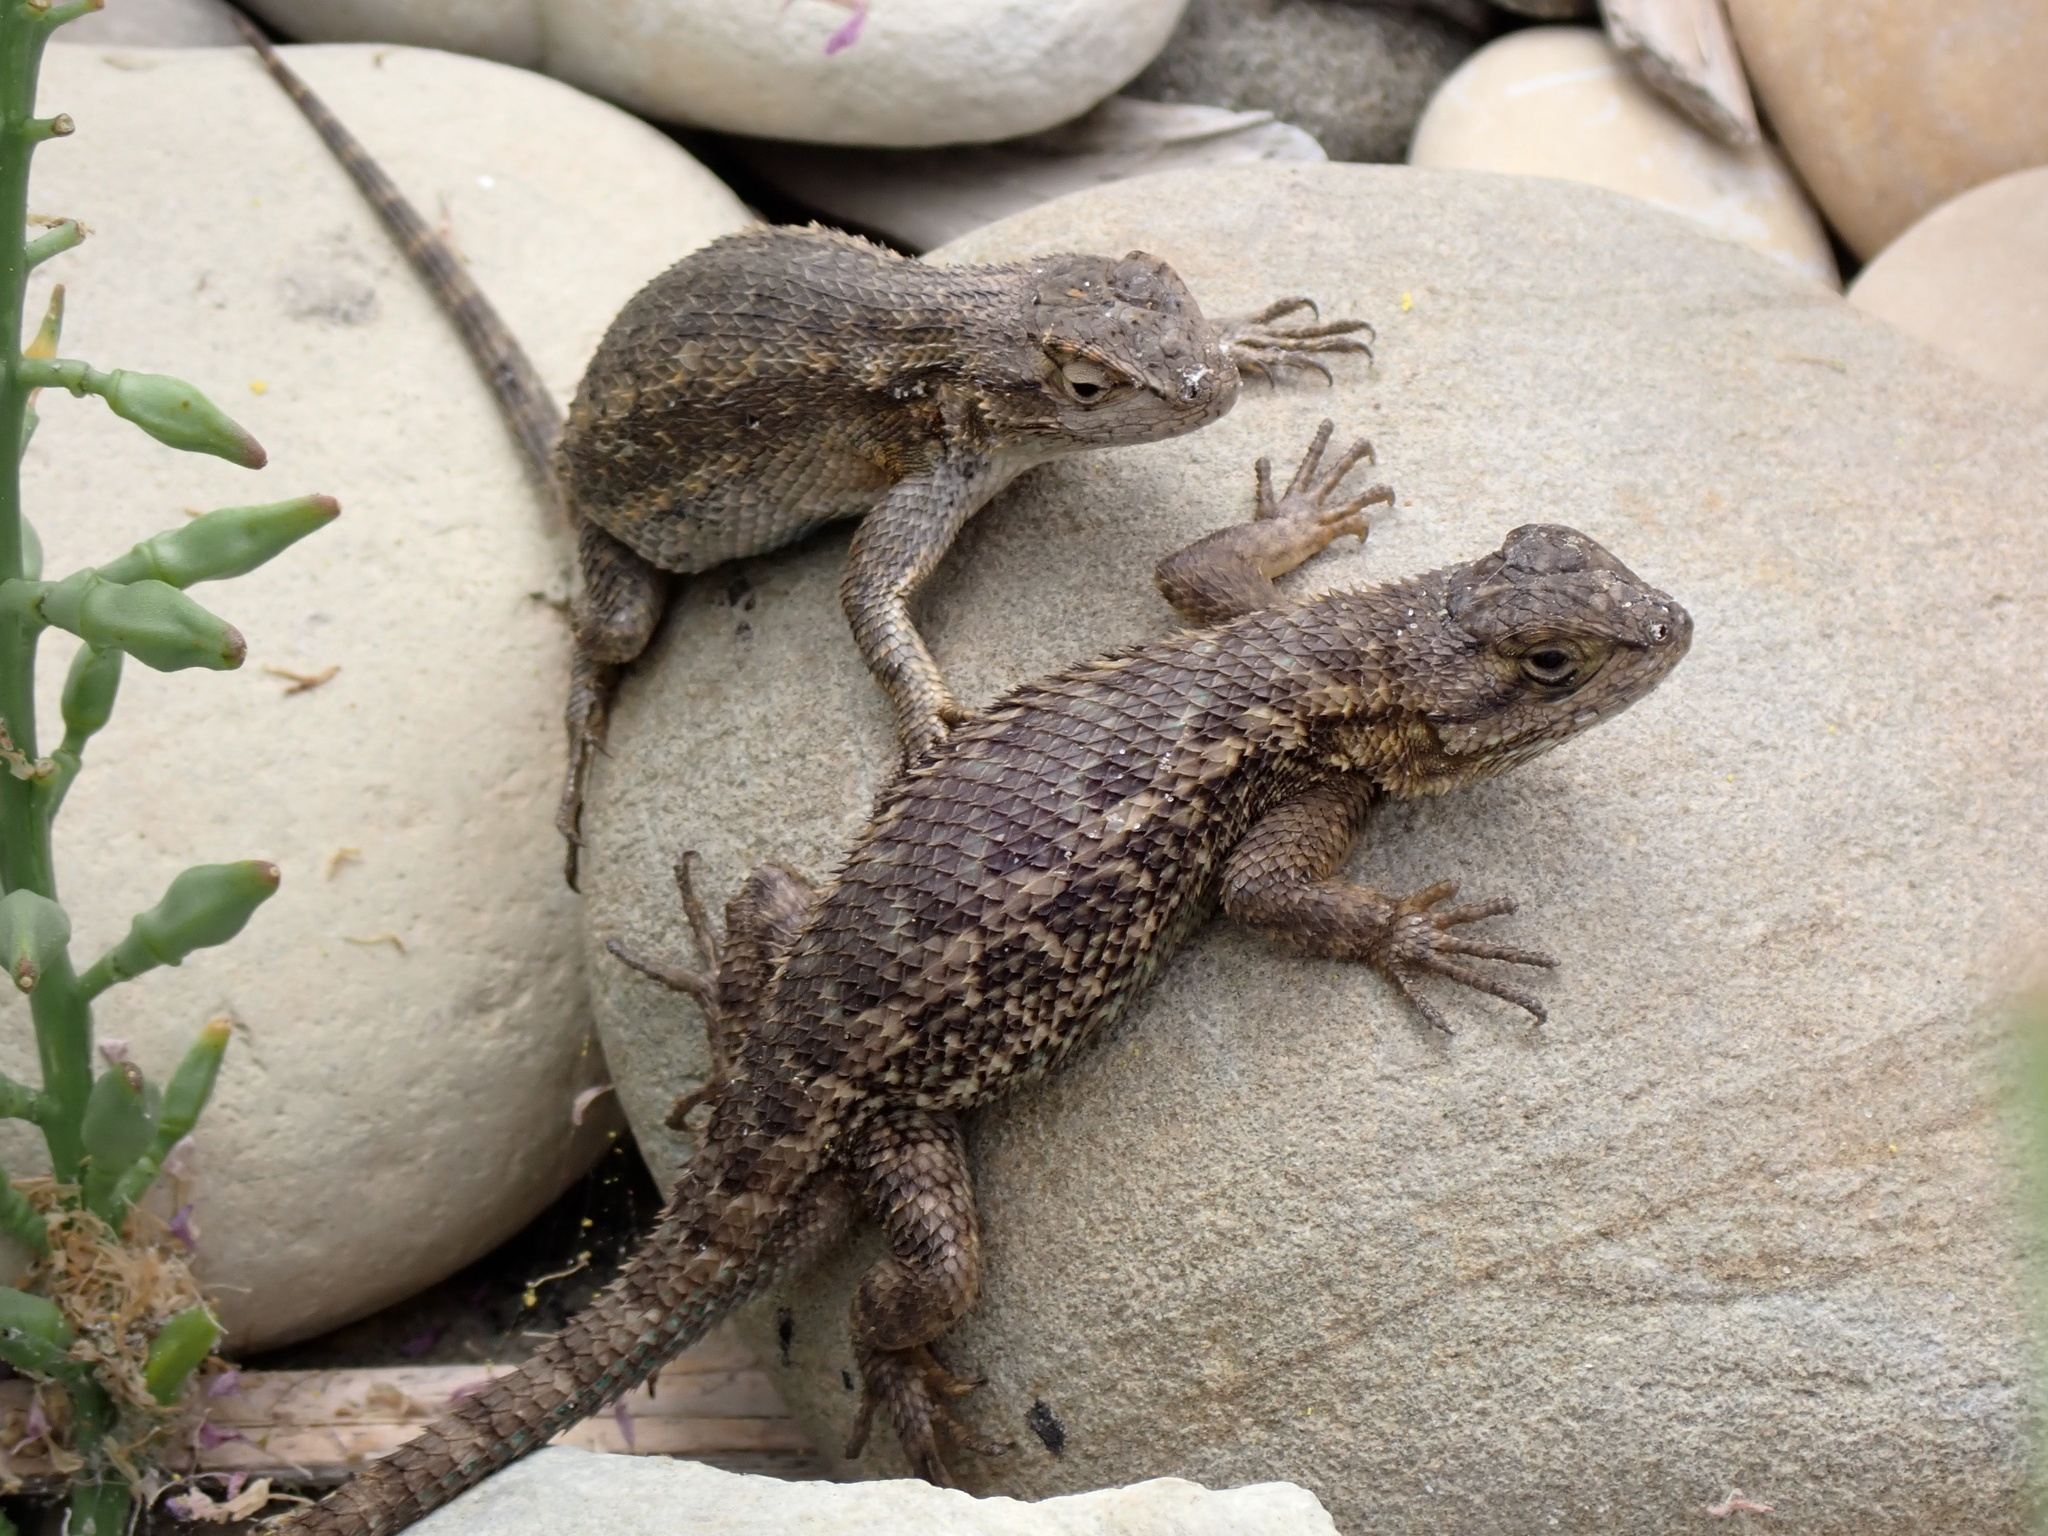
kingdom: Animalia
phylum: Chordata
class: Squamata
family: Phrynosomatidae
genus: Sceloporus
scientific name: Sceloporus occidentalis
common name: Western fence lizard
